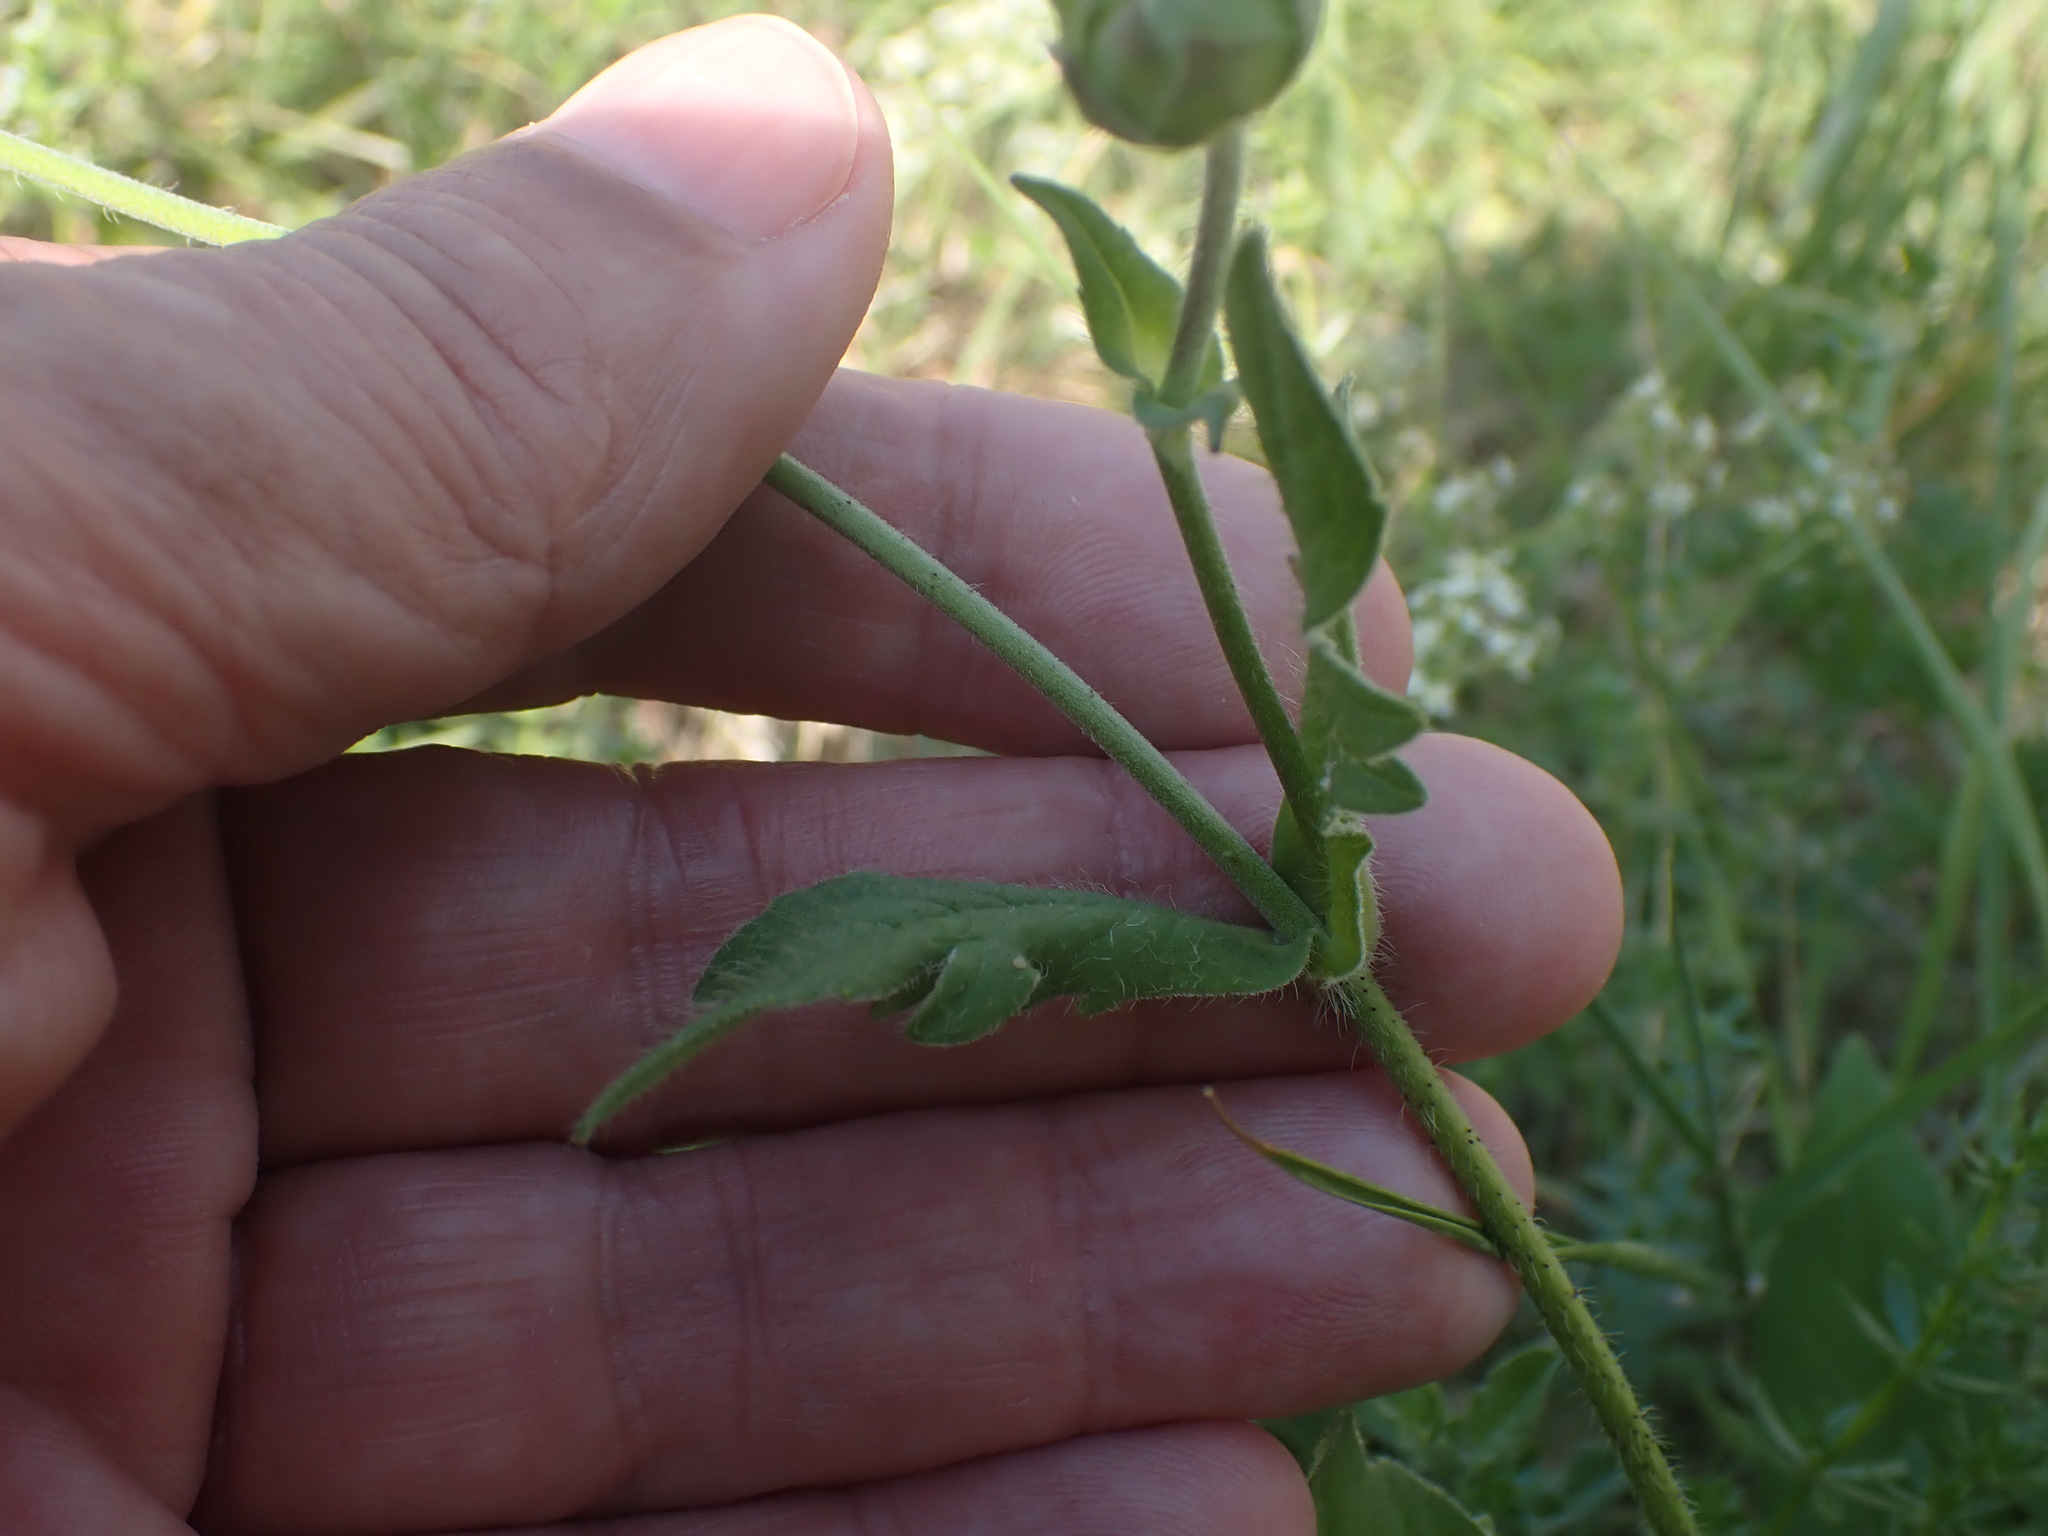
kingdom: Plantae
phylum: Tracheophyta
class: Magnoliopsida
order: Dipsacales
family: Caprifoliaceae
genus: Knautia
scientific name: Knautia arvensis
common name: Field scabiosa
